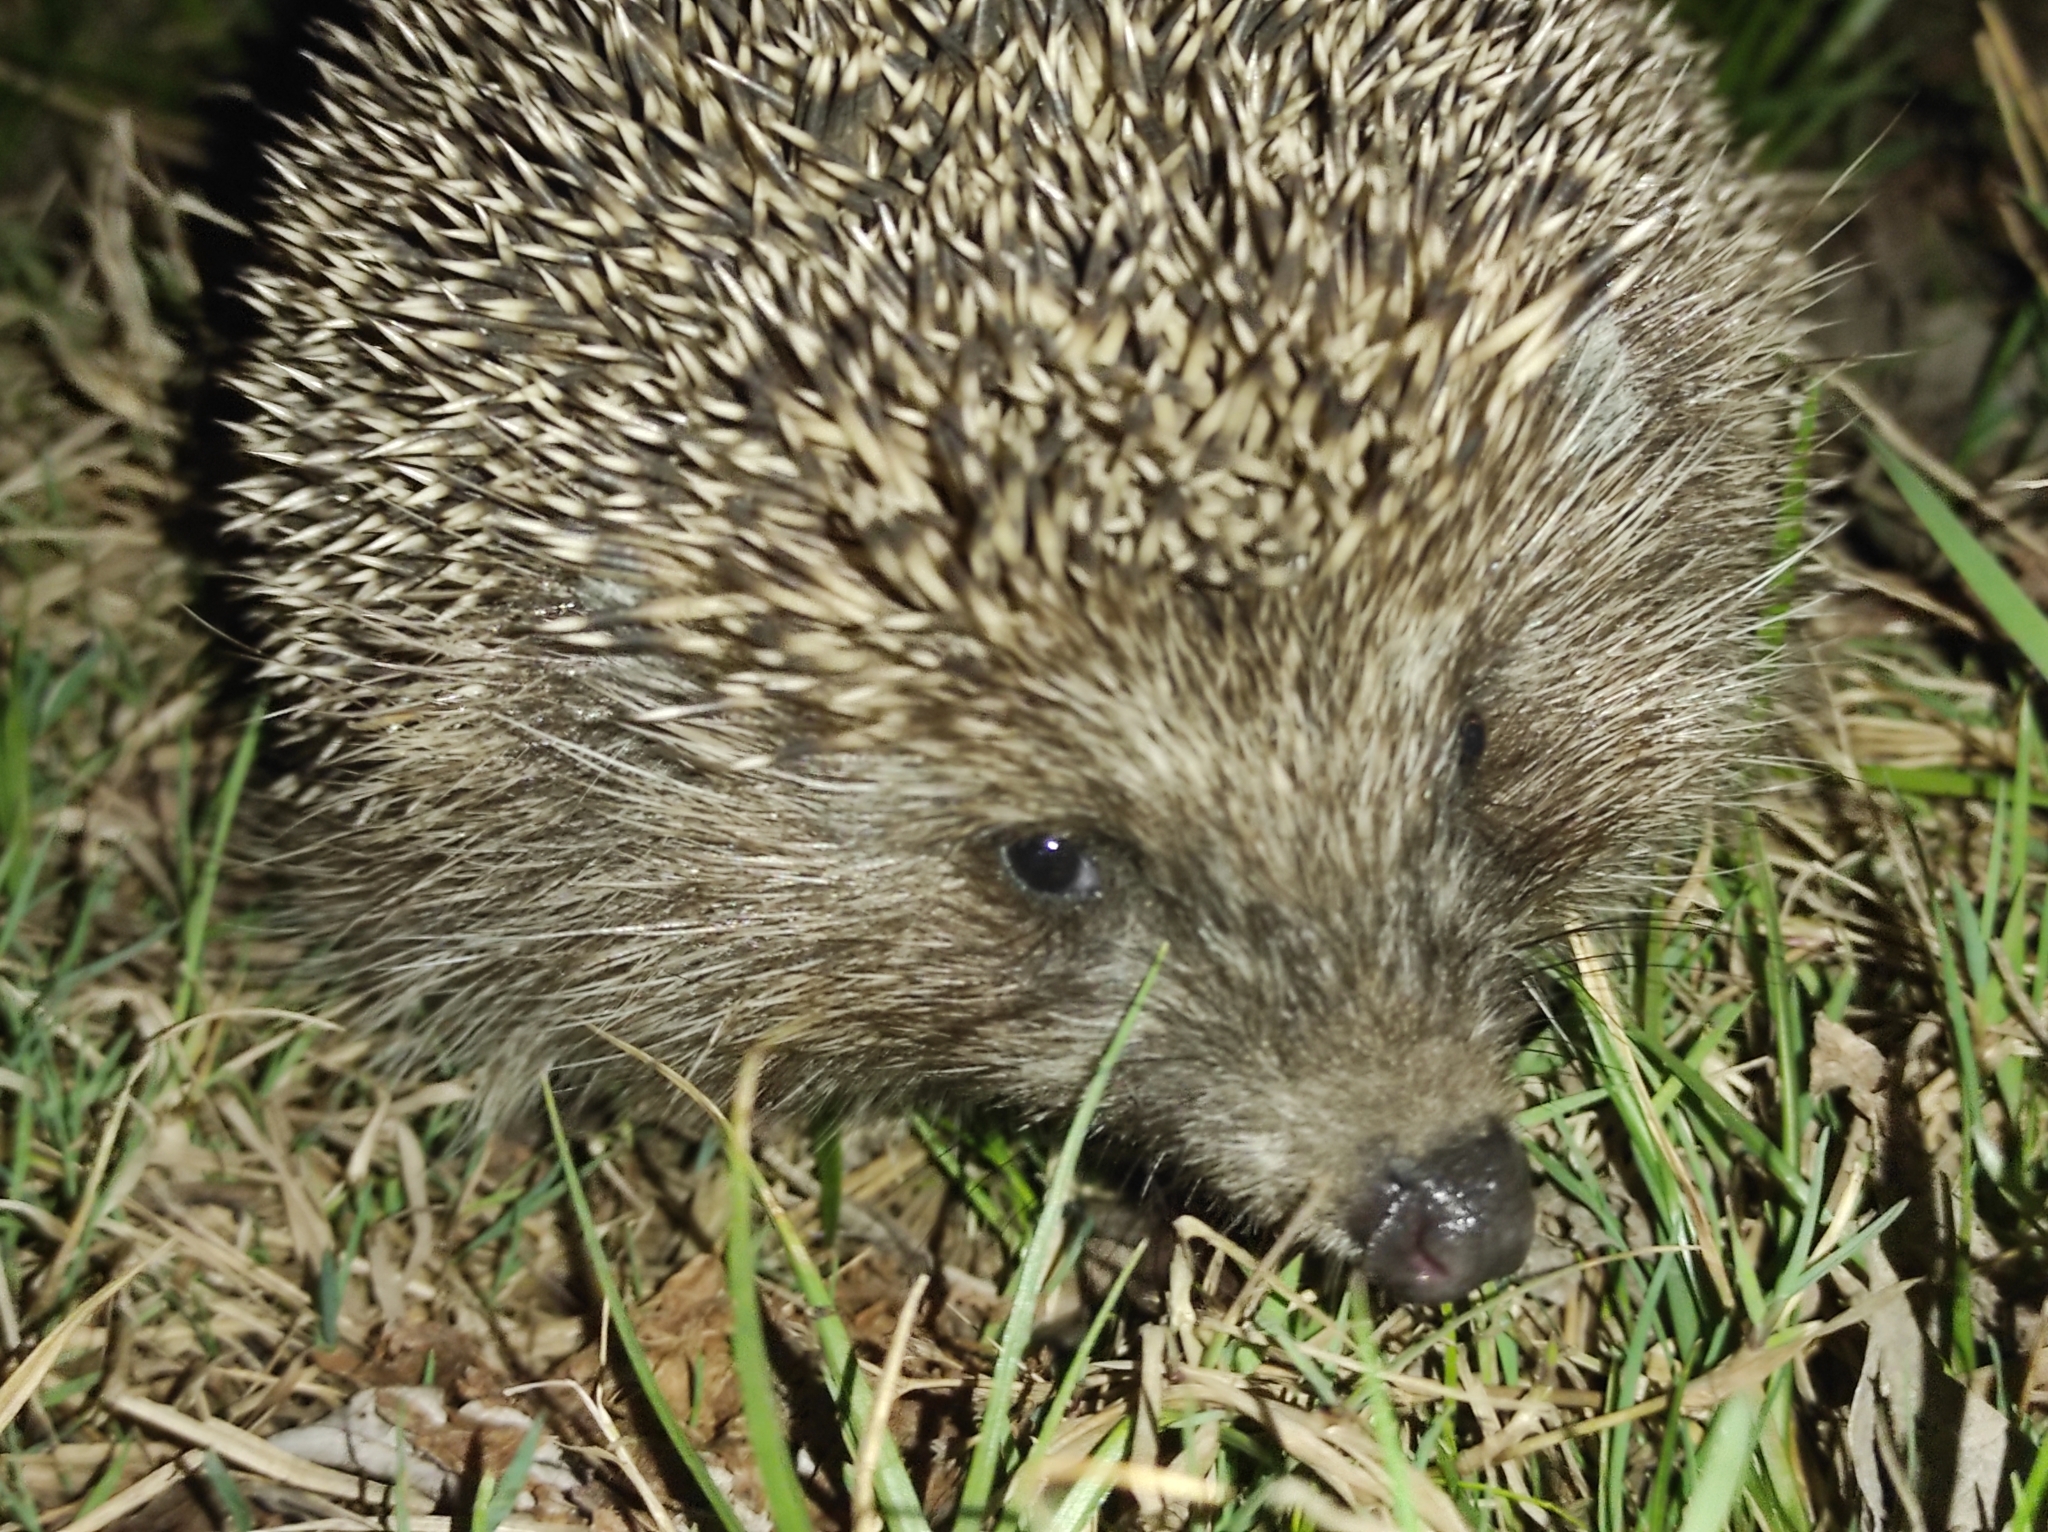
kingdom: Animalia
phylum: Chordata
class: Mammalia
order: Erinaceomorpha
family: Erinaceidae
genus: Erinaceus
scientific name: Erinaceus roumanicus
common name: Northern white-breasted hedgehog
